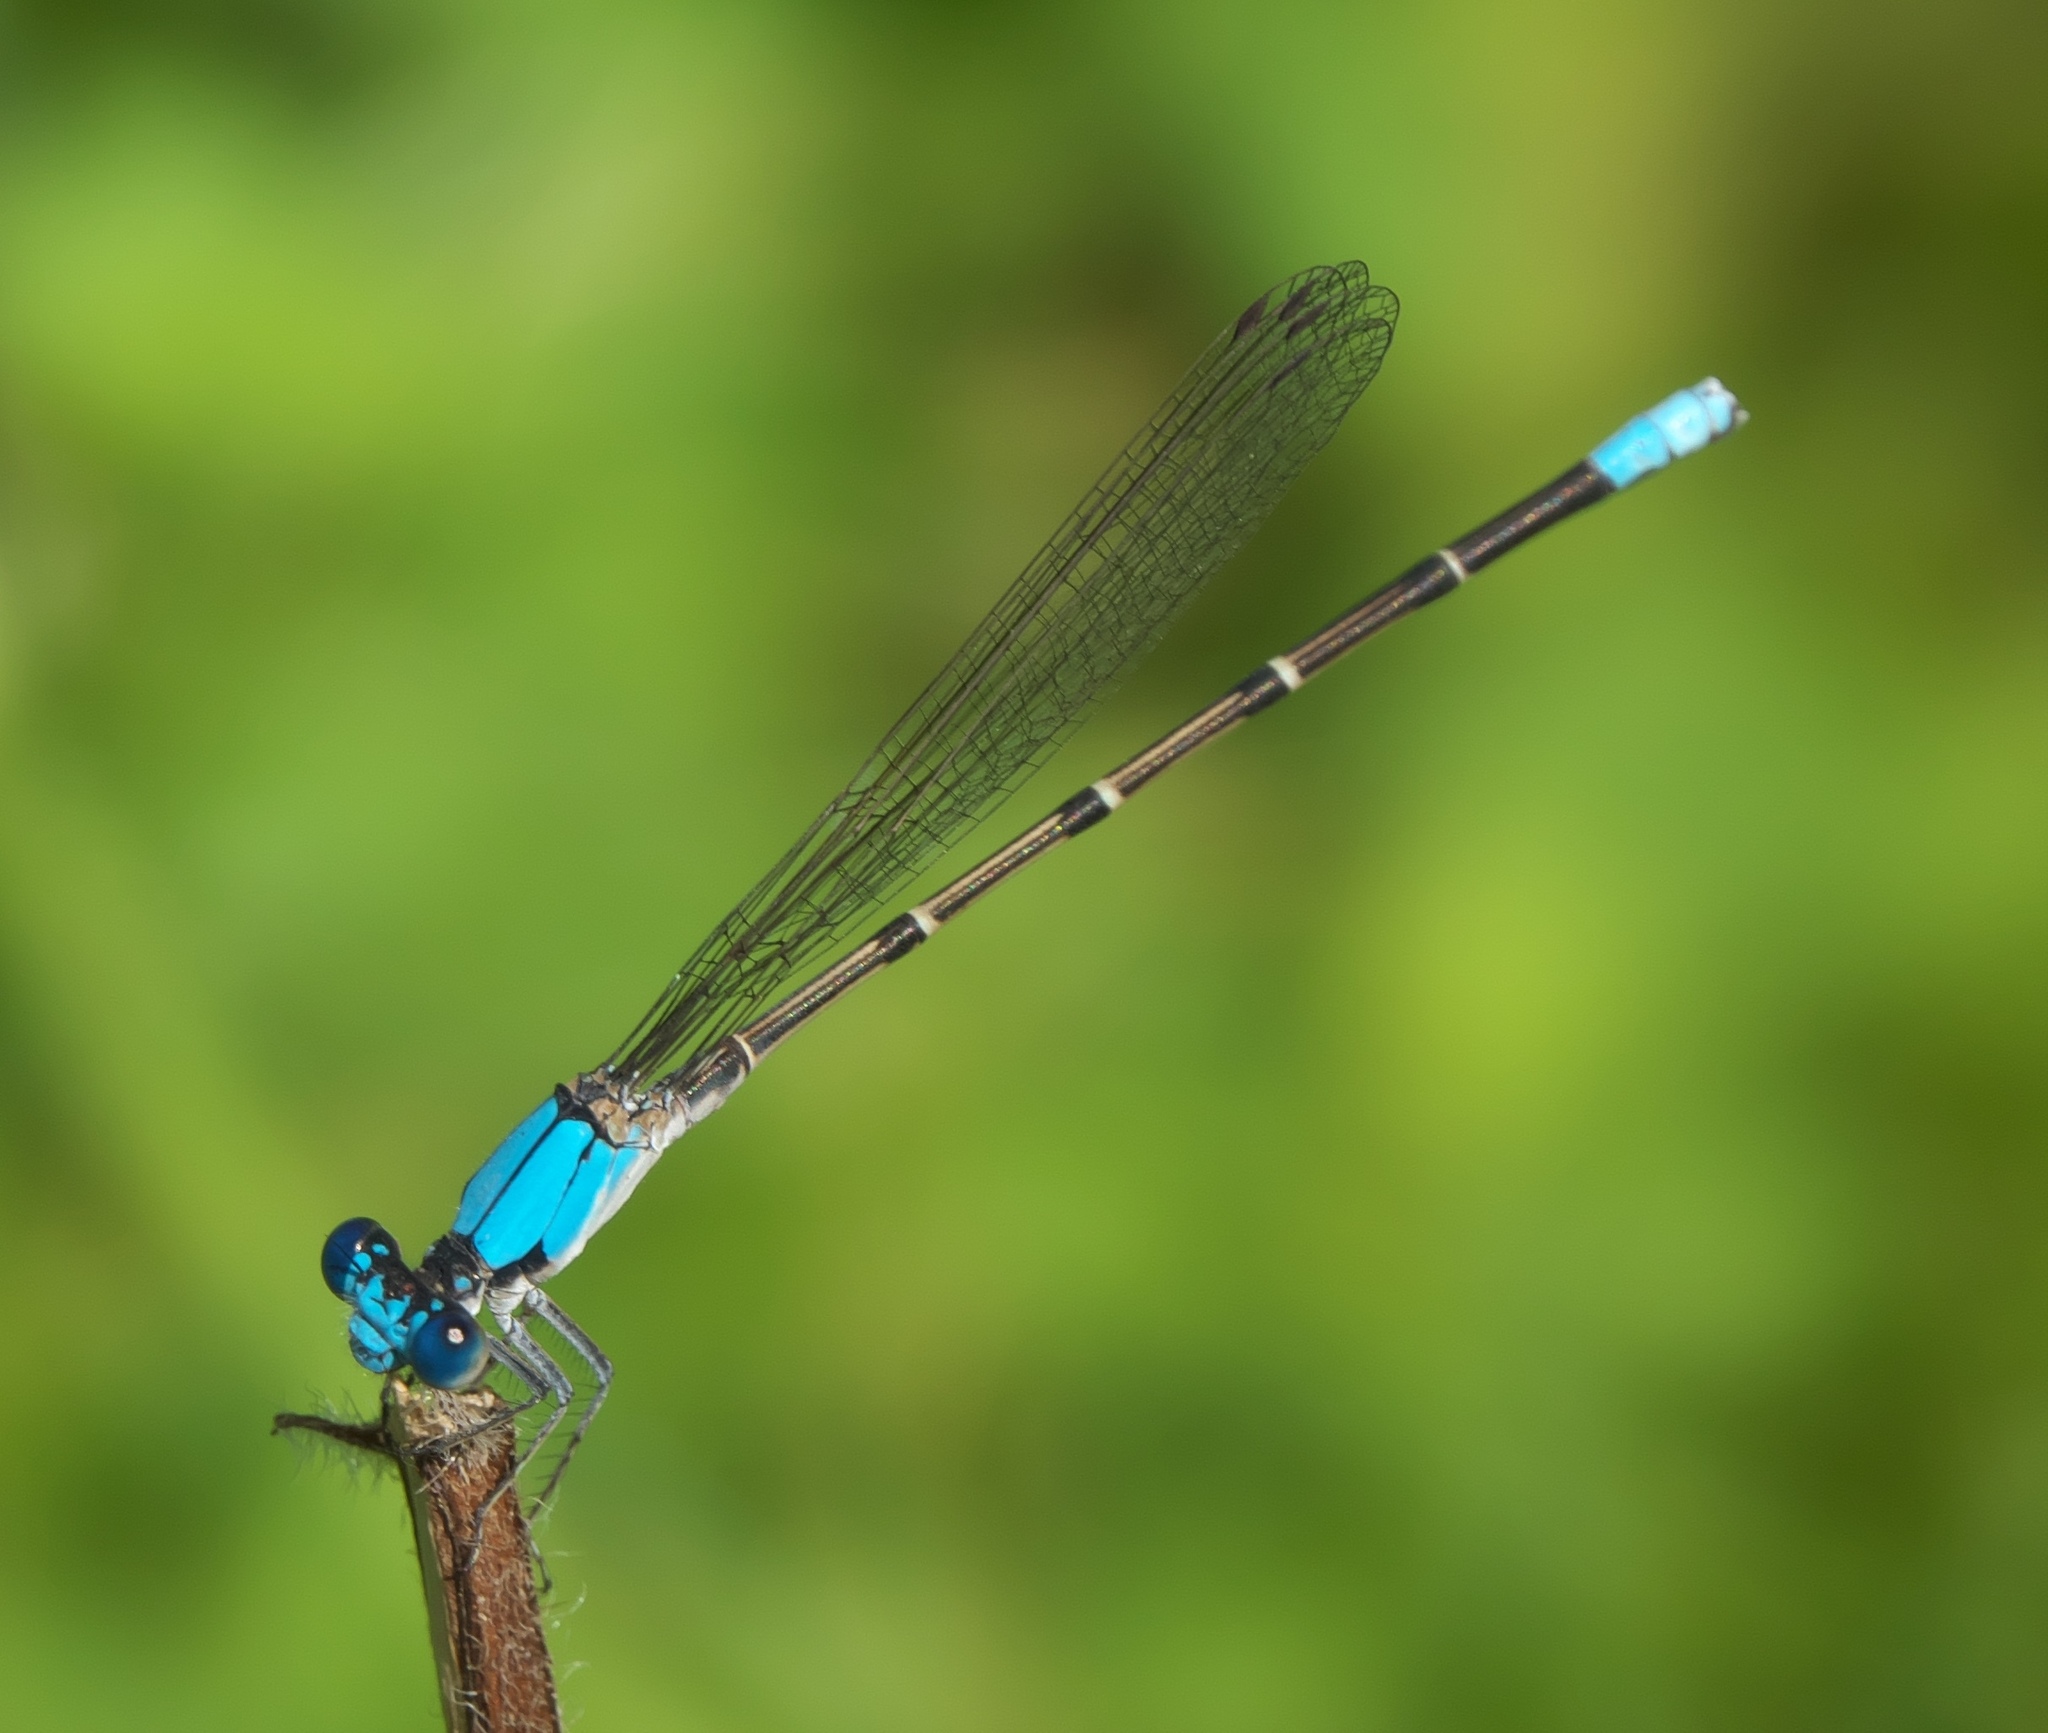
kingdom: Animalia
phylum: Arthropoda
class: Insecta
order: Odonata
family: Coenagrionidae
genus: Argia
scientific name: Argia apicalis
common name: Blue-fronted dancer
